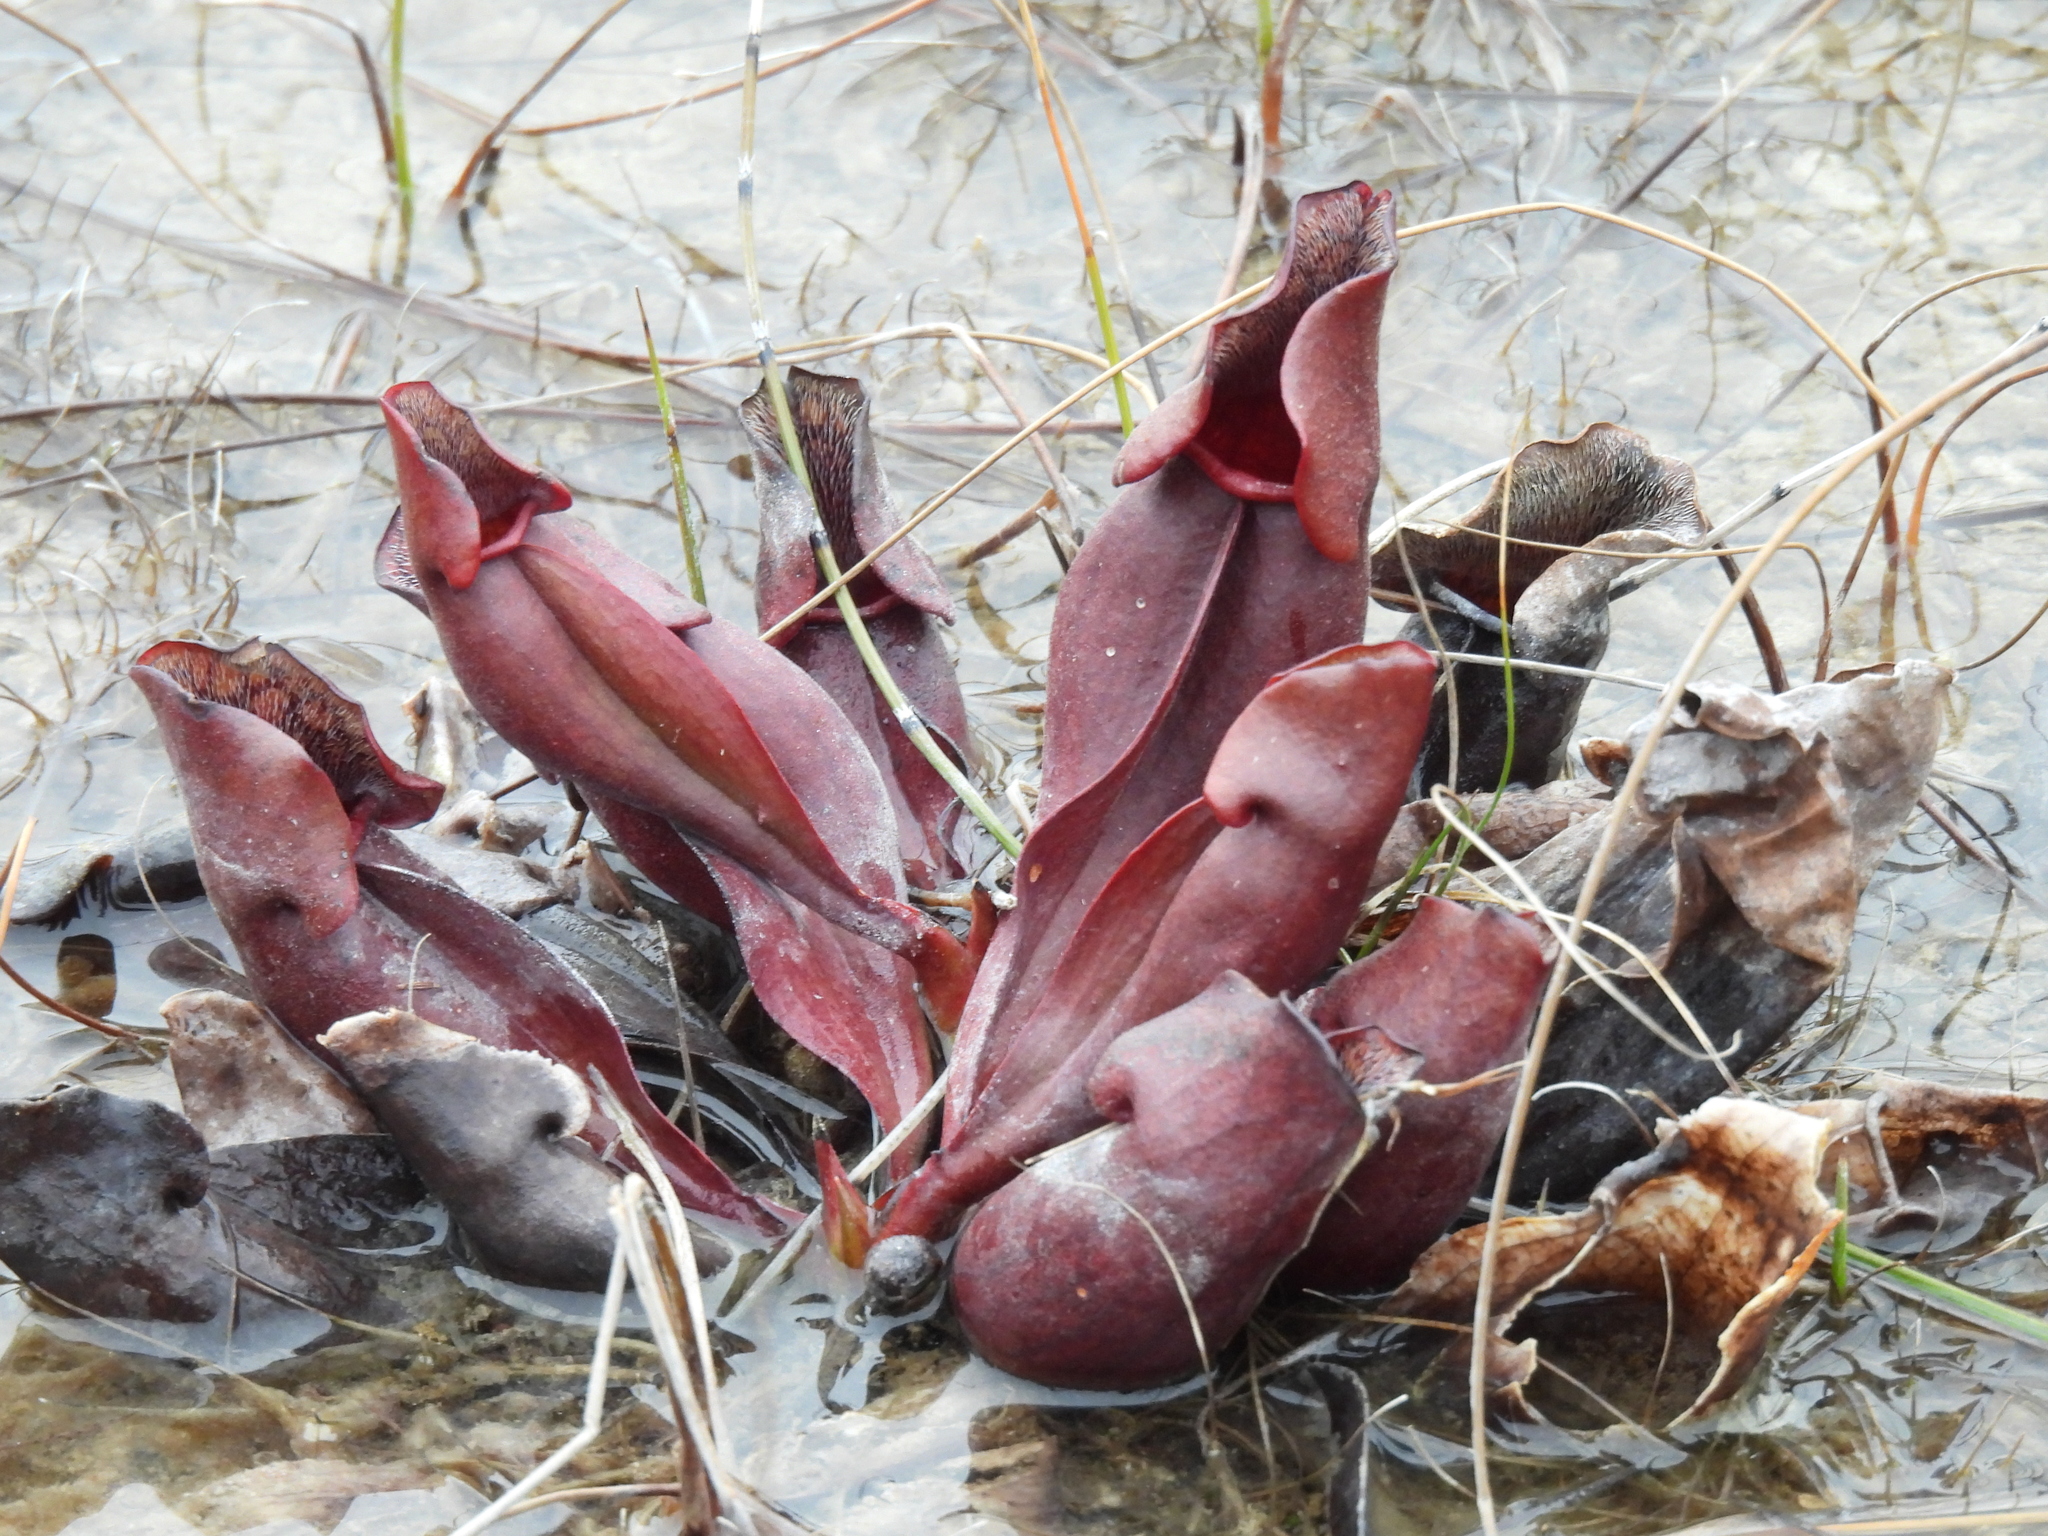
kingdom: Plantae
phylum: Tracheophyta
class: Magnoliopsida
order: Ericales
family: Sarraceniaceae
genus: Sarracenia
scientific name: Sarracenia purpurea
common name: Pitcherplant
